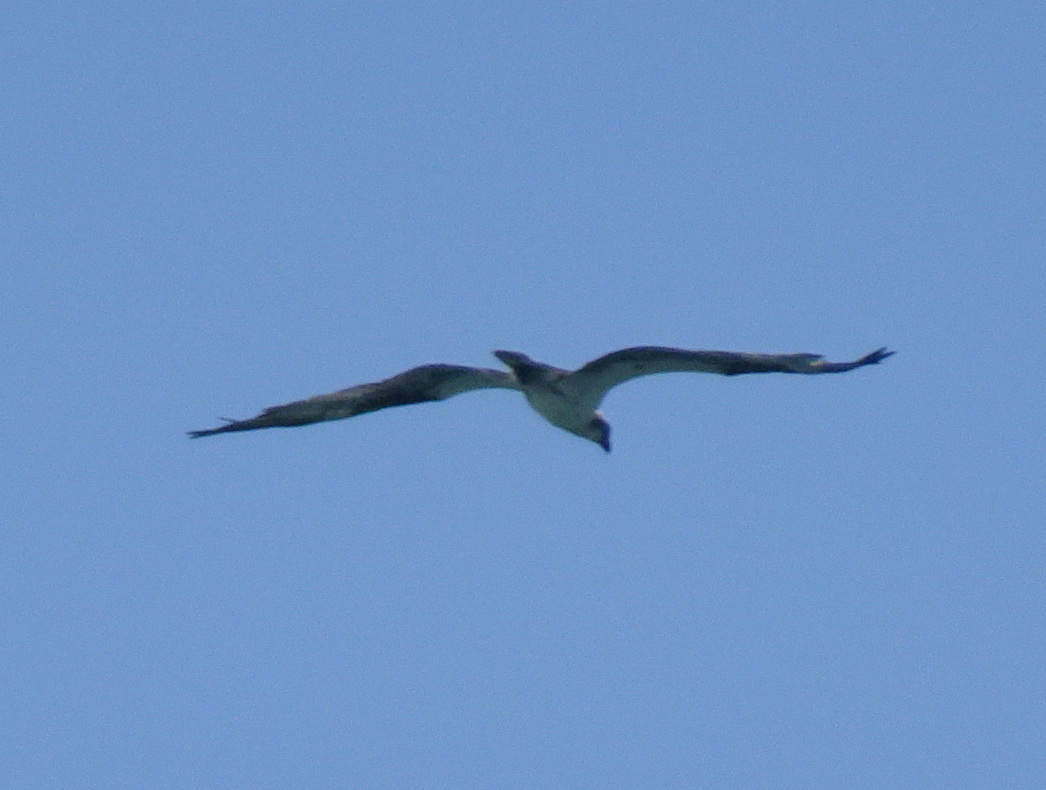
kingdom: Animalia
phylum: Chordata
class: Aves
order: Accipitriformes
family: Pandionidae
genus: Pandion
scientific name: Pandion haliaetus
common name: Osprey
